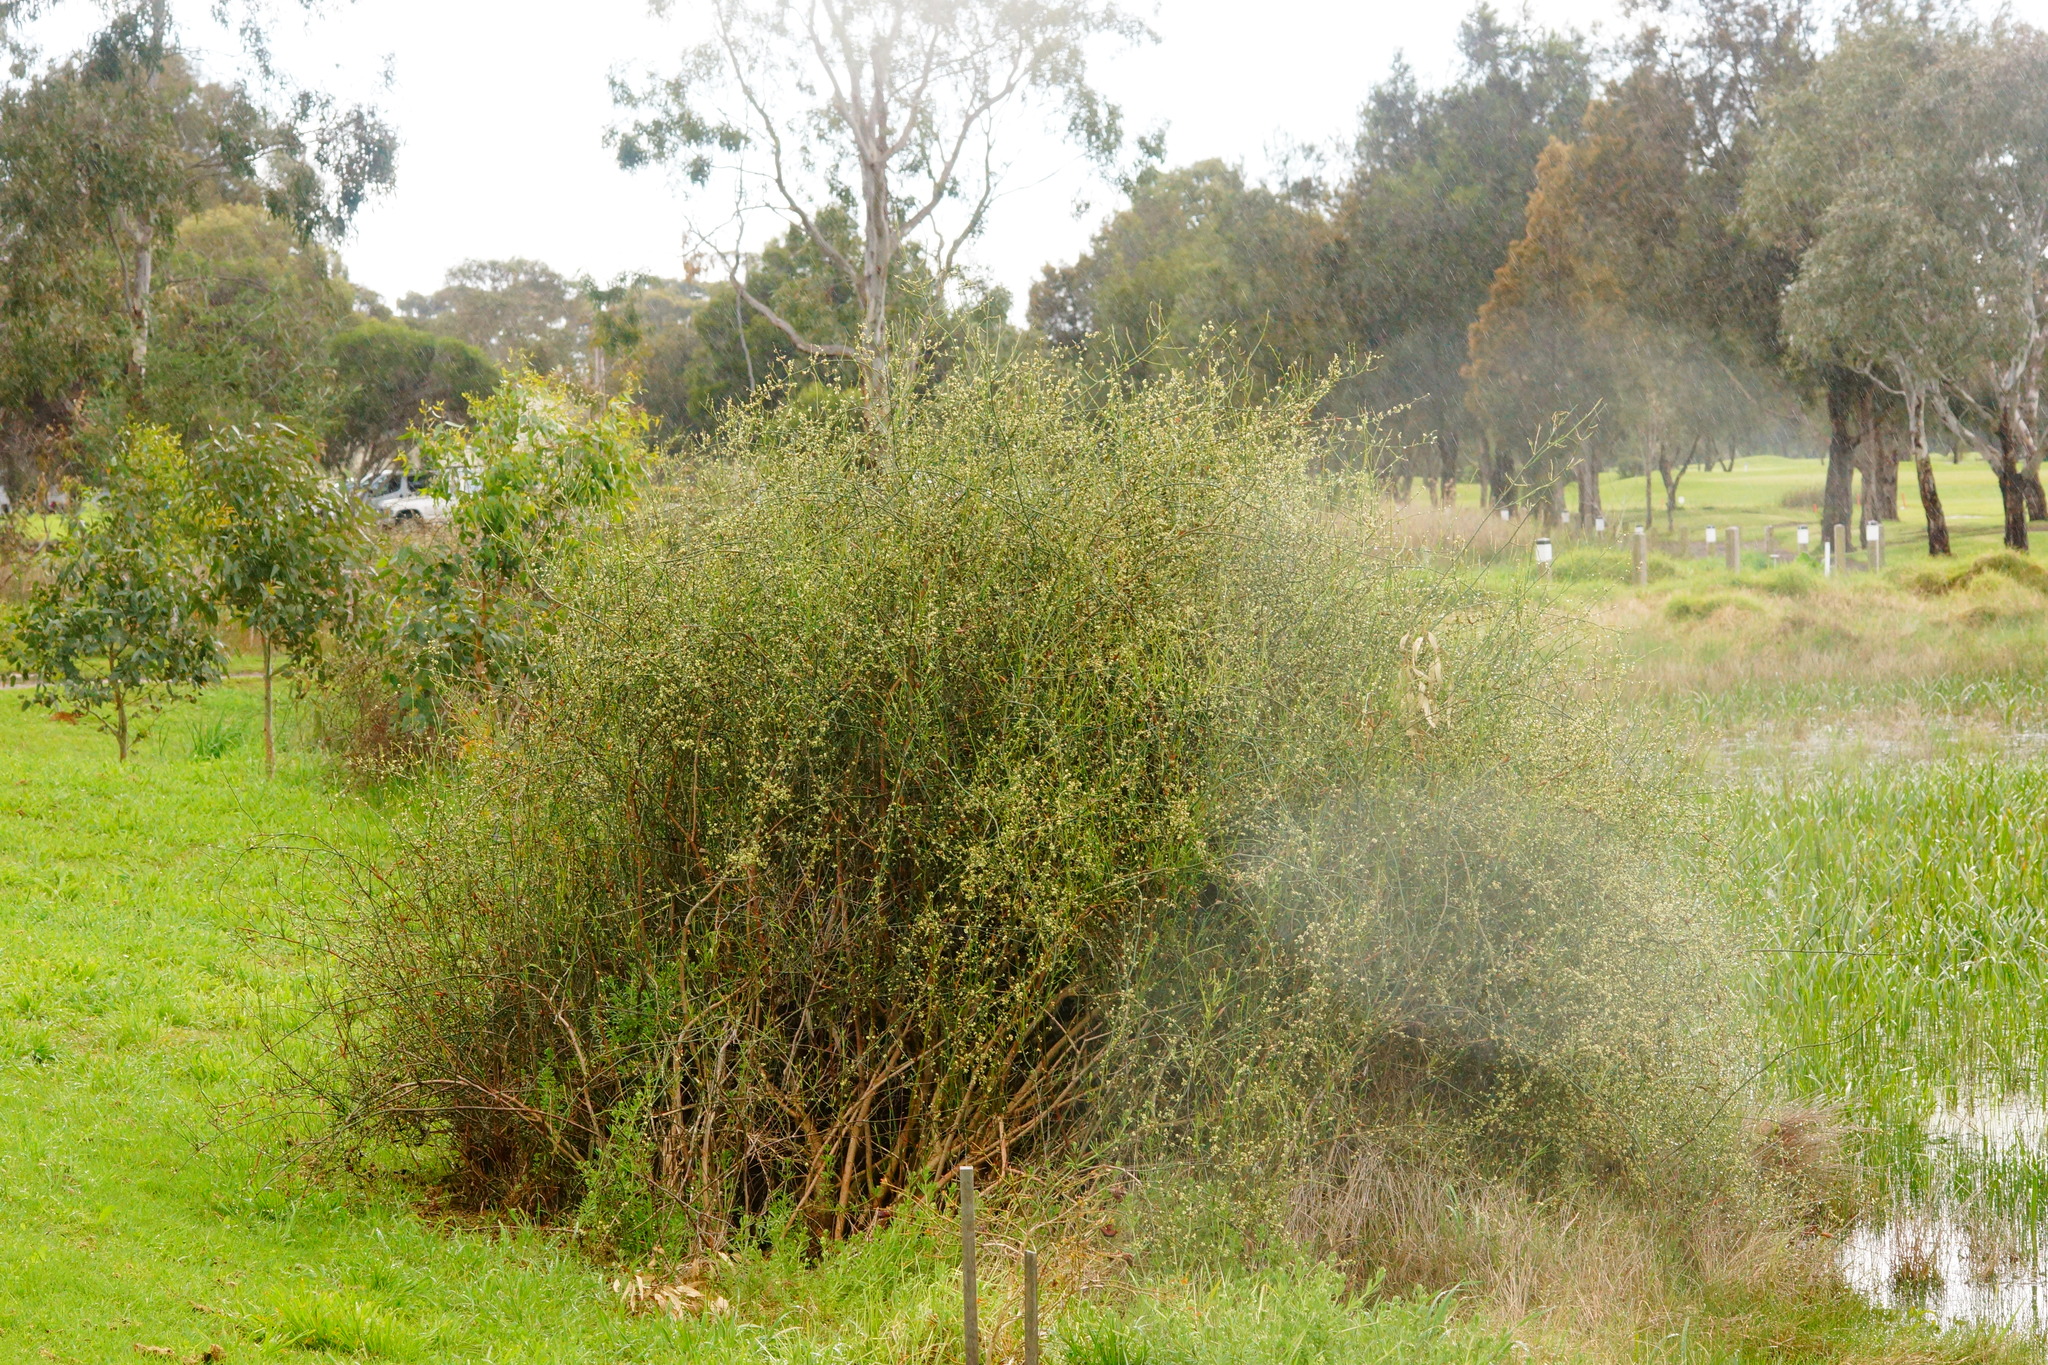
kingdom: Plantae
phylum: Tracheophyta
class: Magnoliopsida
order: Caryophyllales
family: Polygonaceae
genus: Duma
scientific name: Duma florulenta
